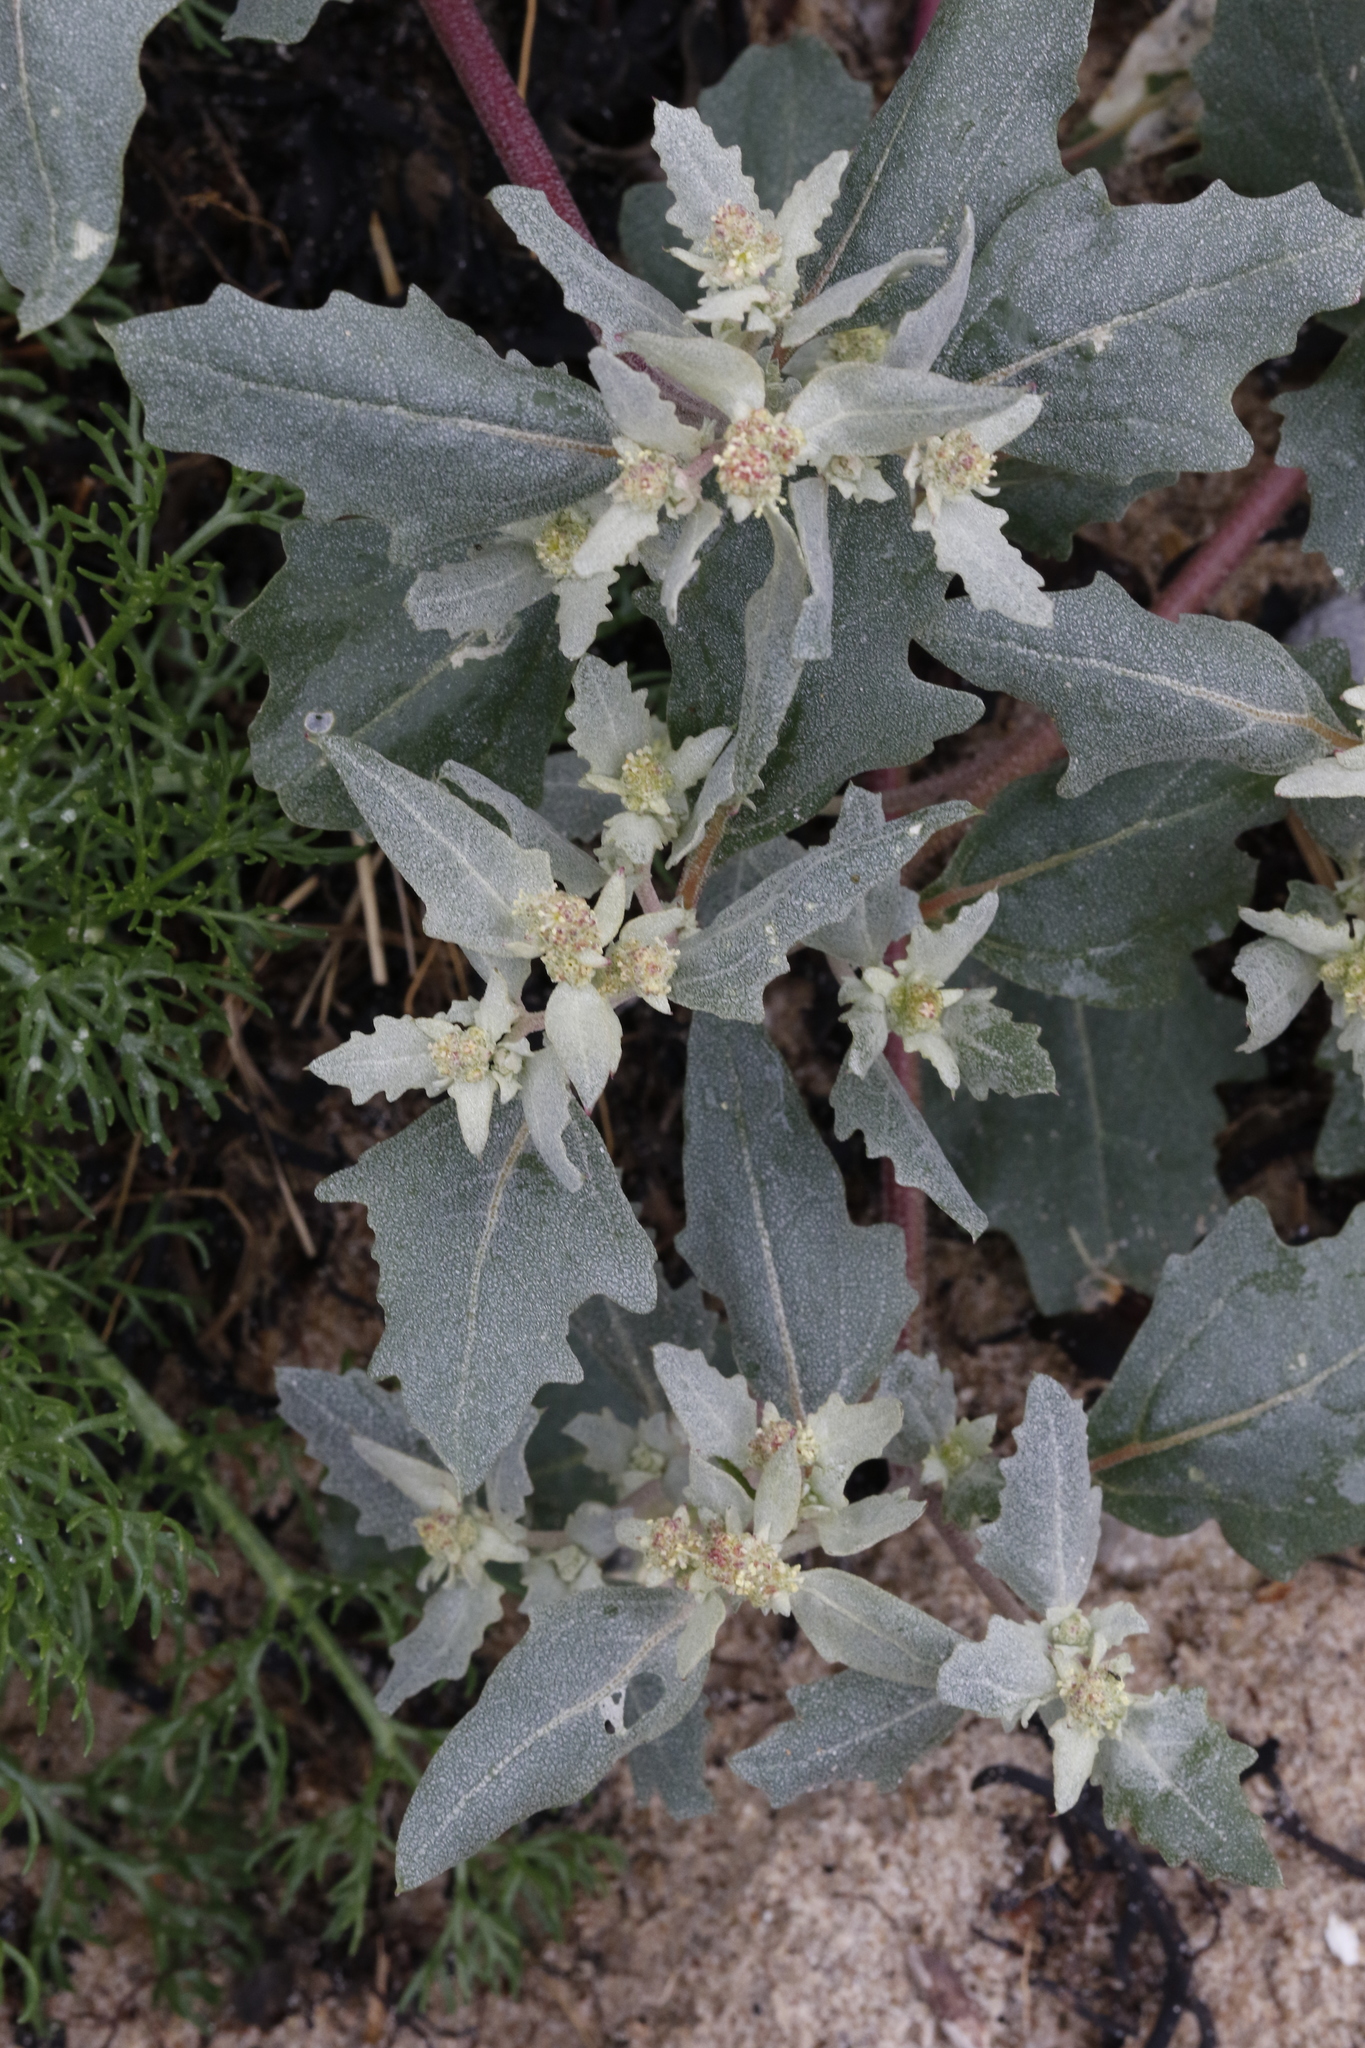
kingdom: Plantae
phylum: Tracheophyta
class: Magnoliopsida
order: Caryophyllales
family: Amaranthaceae
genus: Atriplex
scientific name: Atriplex laciniata
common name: Frosted orache
